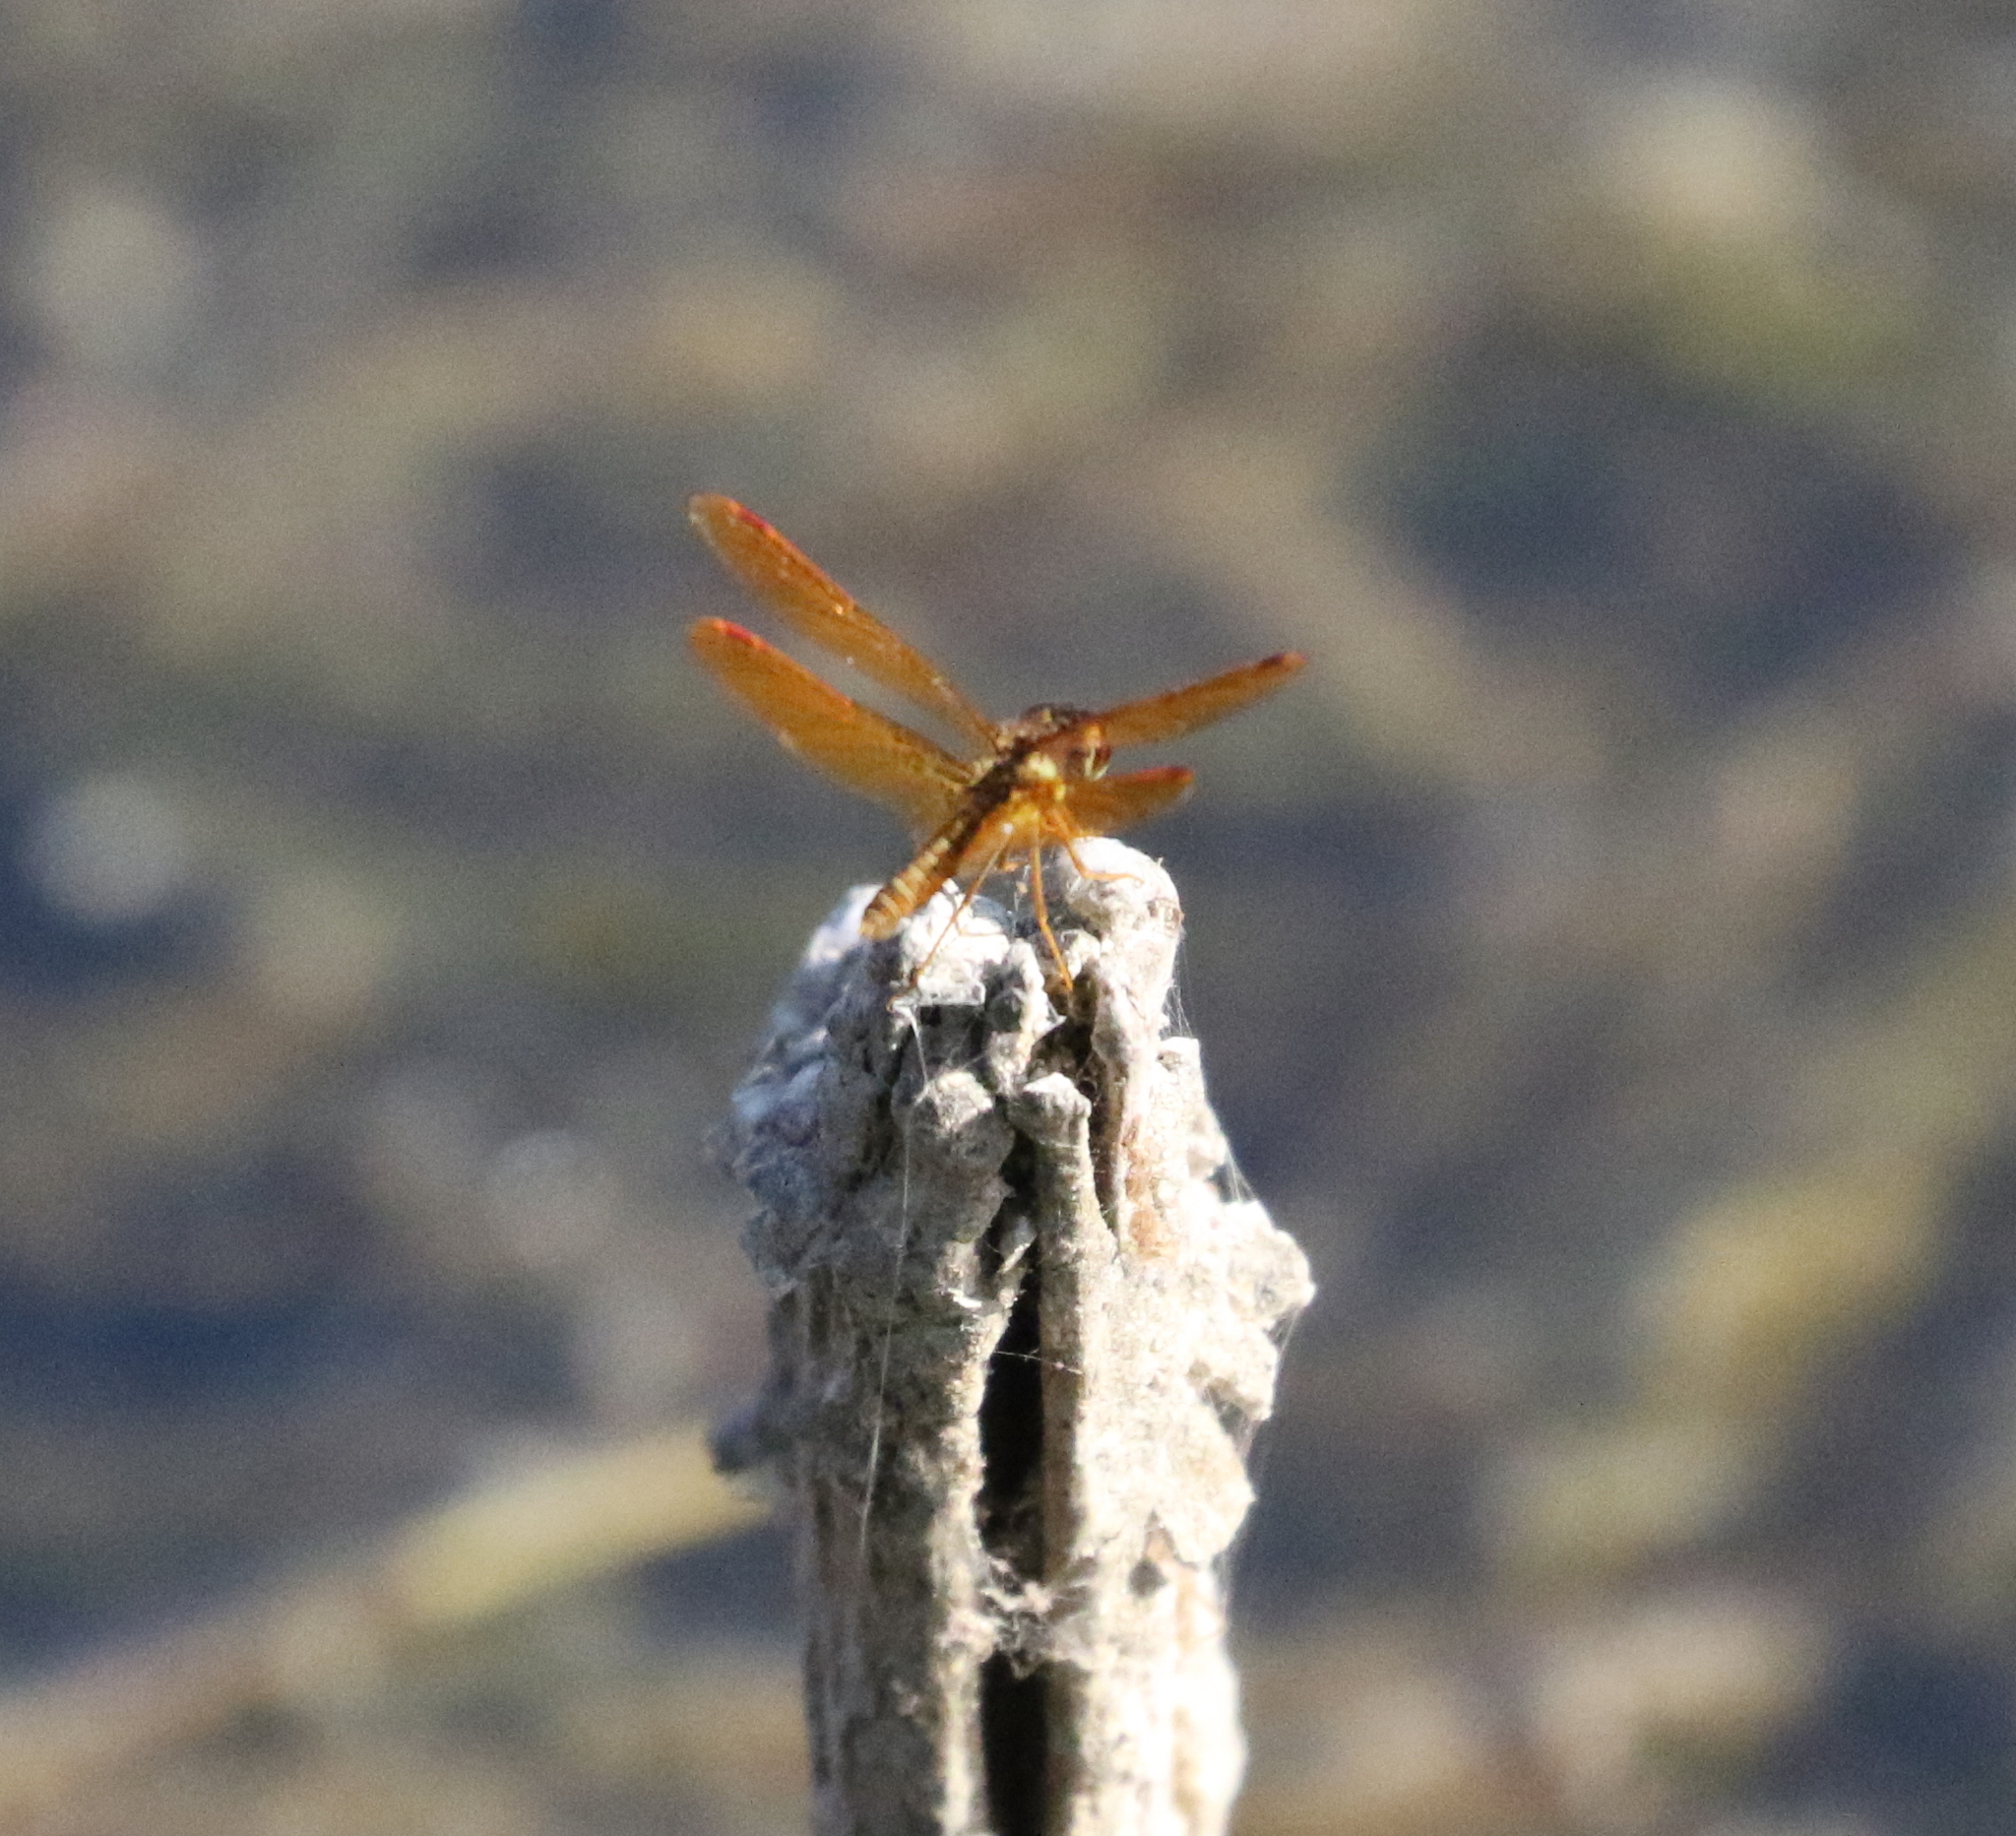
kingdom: Animalia
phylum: Arthropoda
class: Insecta
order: Odonata
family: Libellulidae
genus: Perithemis
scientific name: Perithemis tenera
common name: Eastern amberwing
